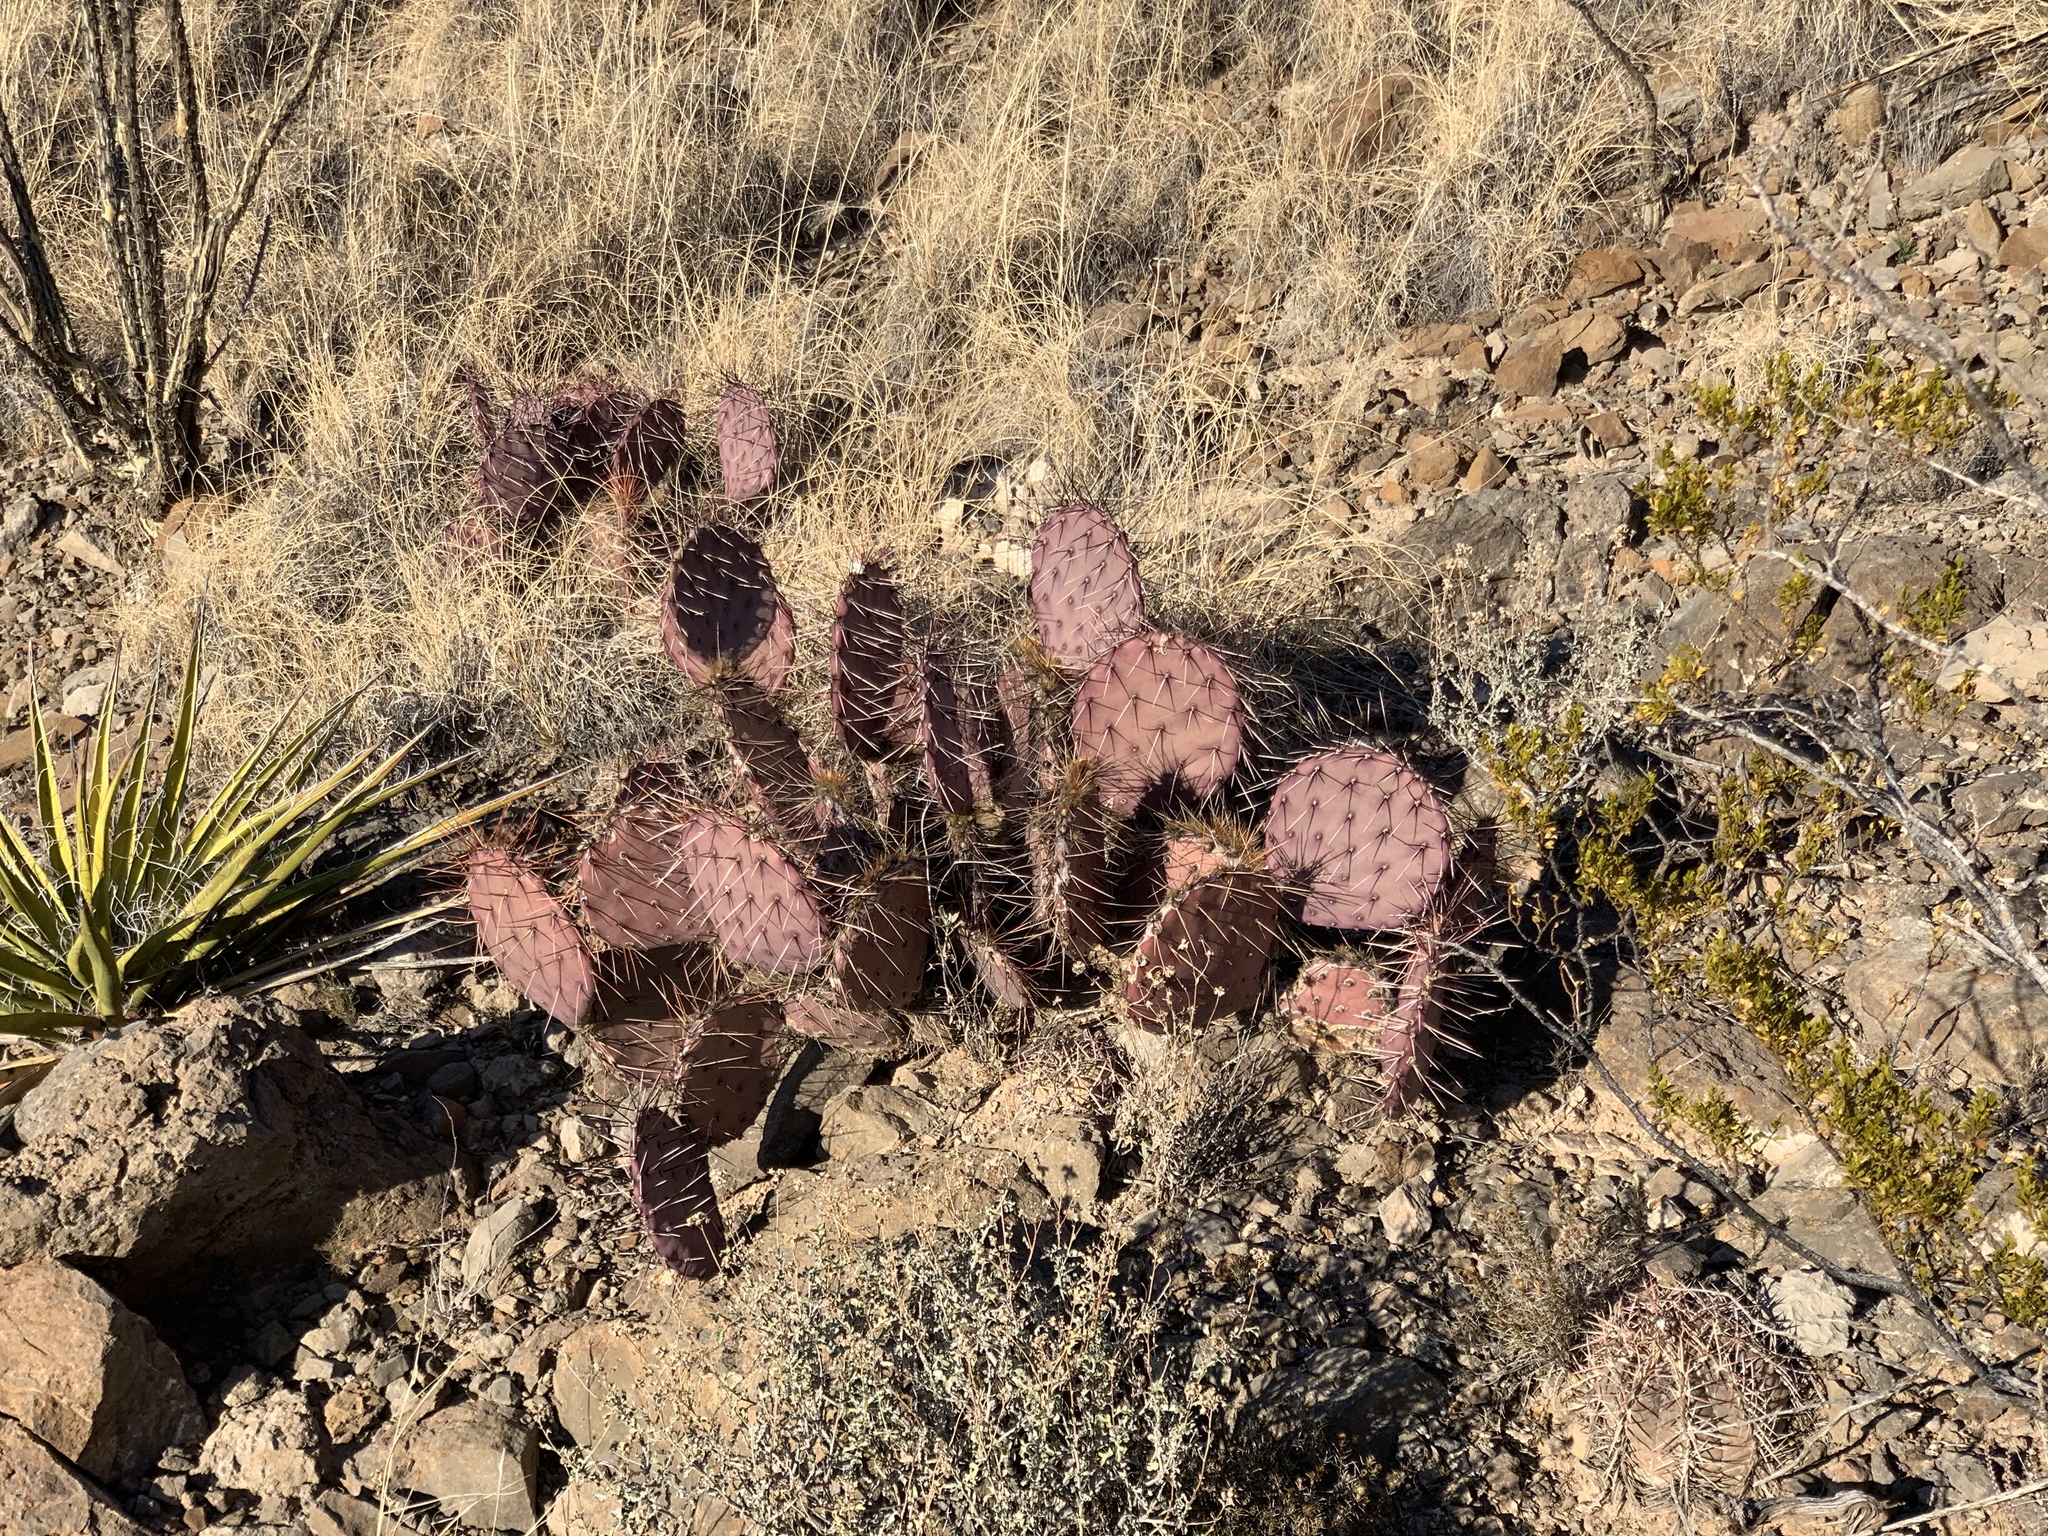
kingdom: Plantae
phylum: Tracheophyta
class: Magnoliopsida
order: Caryophyllales
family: Cactaceae
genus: Opuntia
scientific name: Opuntia macrocentra
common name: Purple prickly-pear
